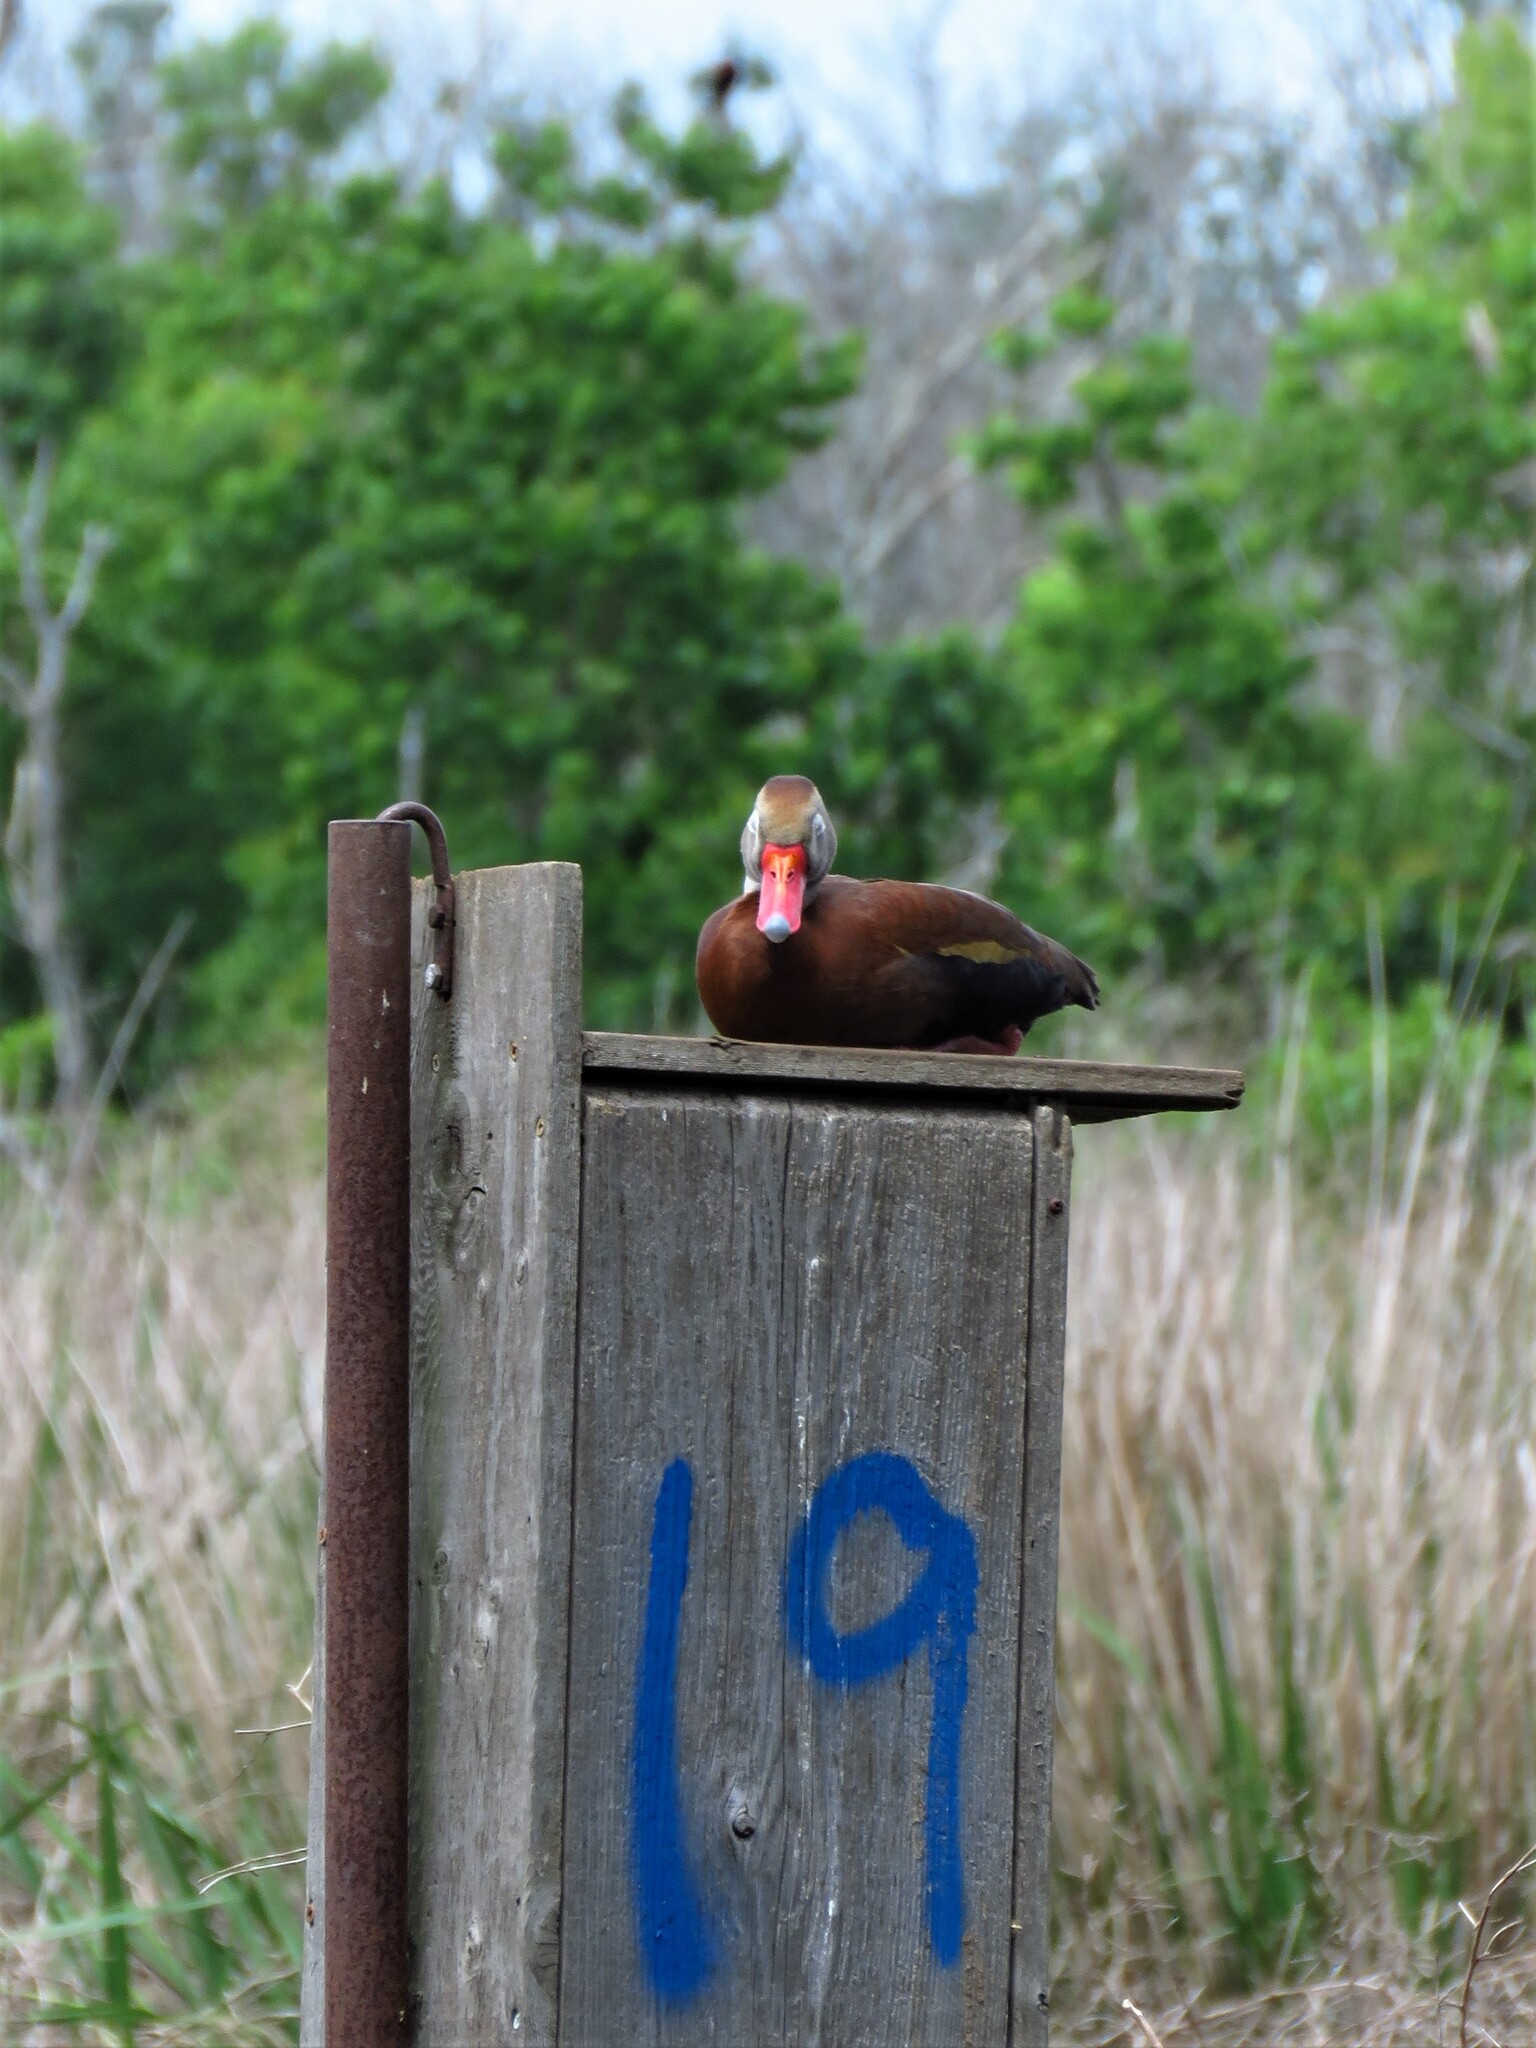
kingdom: Animalia
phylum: Chordata
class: Aves
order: Anseriformes
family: Anatidae
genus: Dendrocygna
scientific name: Dendrocygna autumnalis
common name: Black-bellied whistling duck
